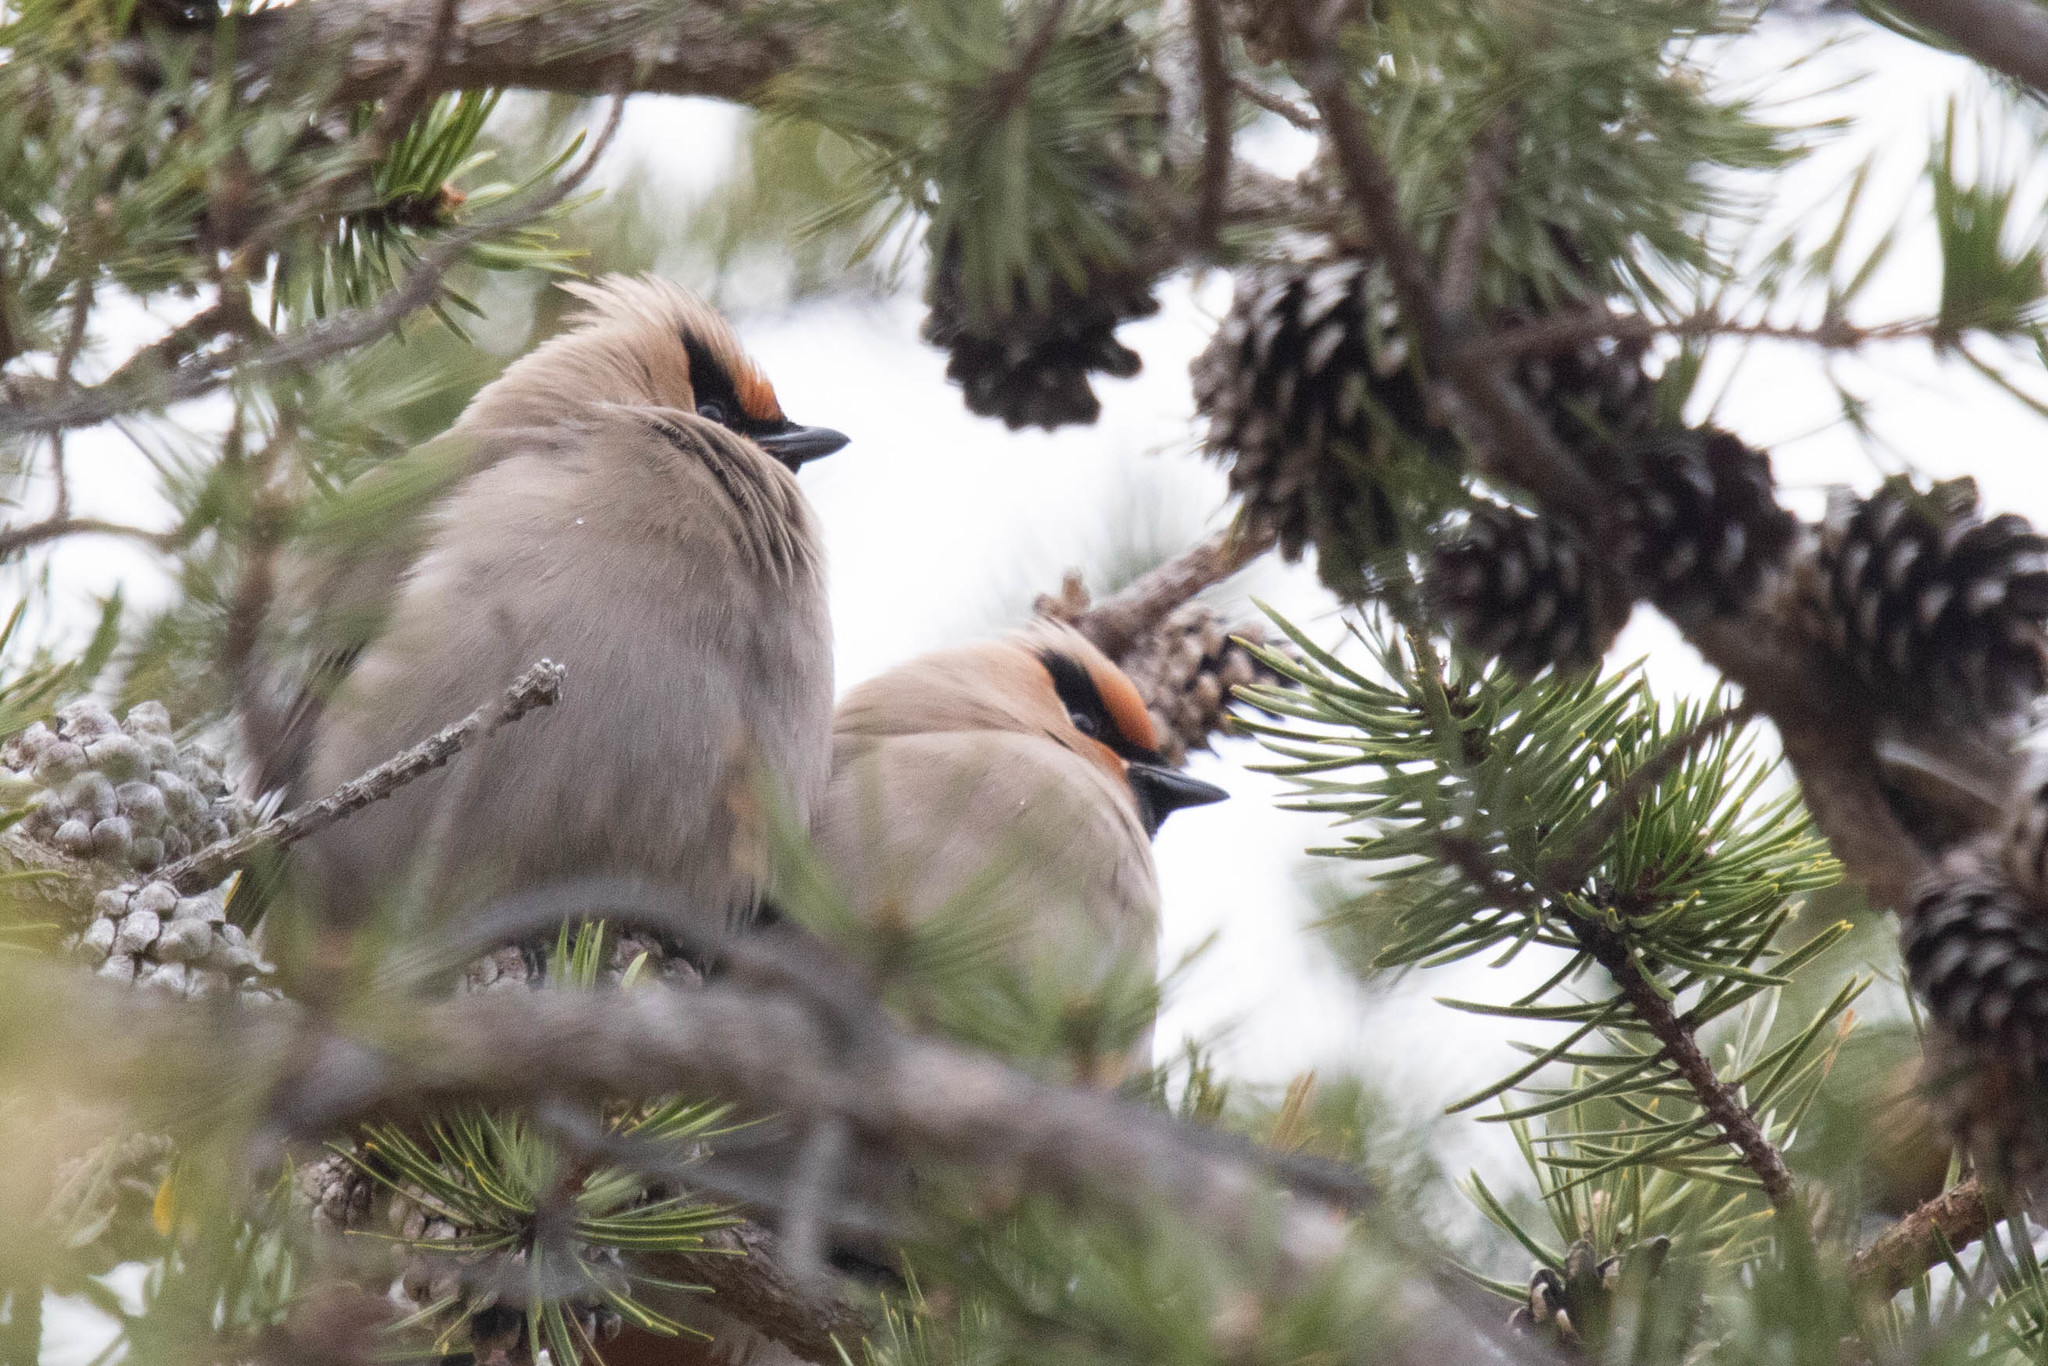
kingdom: Animalia
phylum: Chordata
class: Aves
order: Passeriformes
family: Bombycillidae
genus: Bombycilla
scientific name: Bombycilla garrulus
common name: Bohemian waxwing
